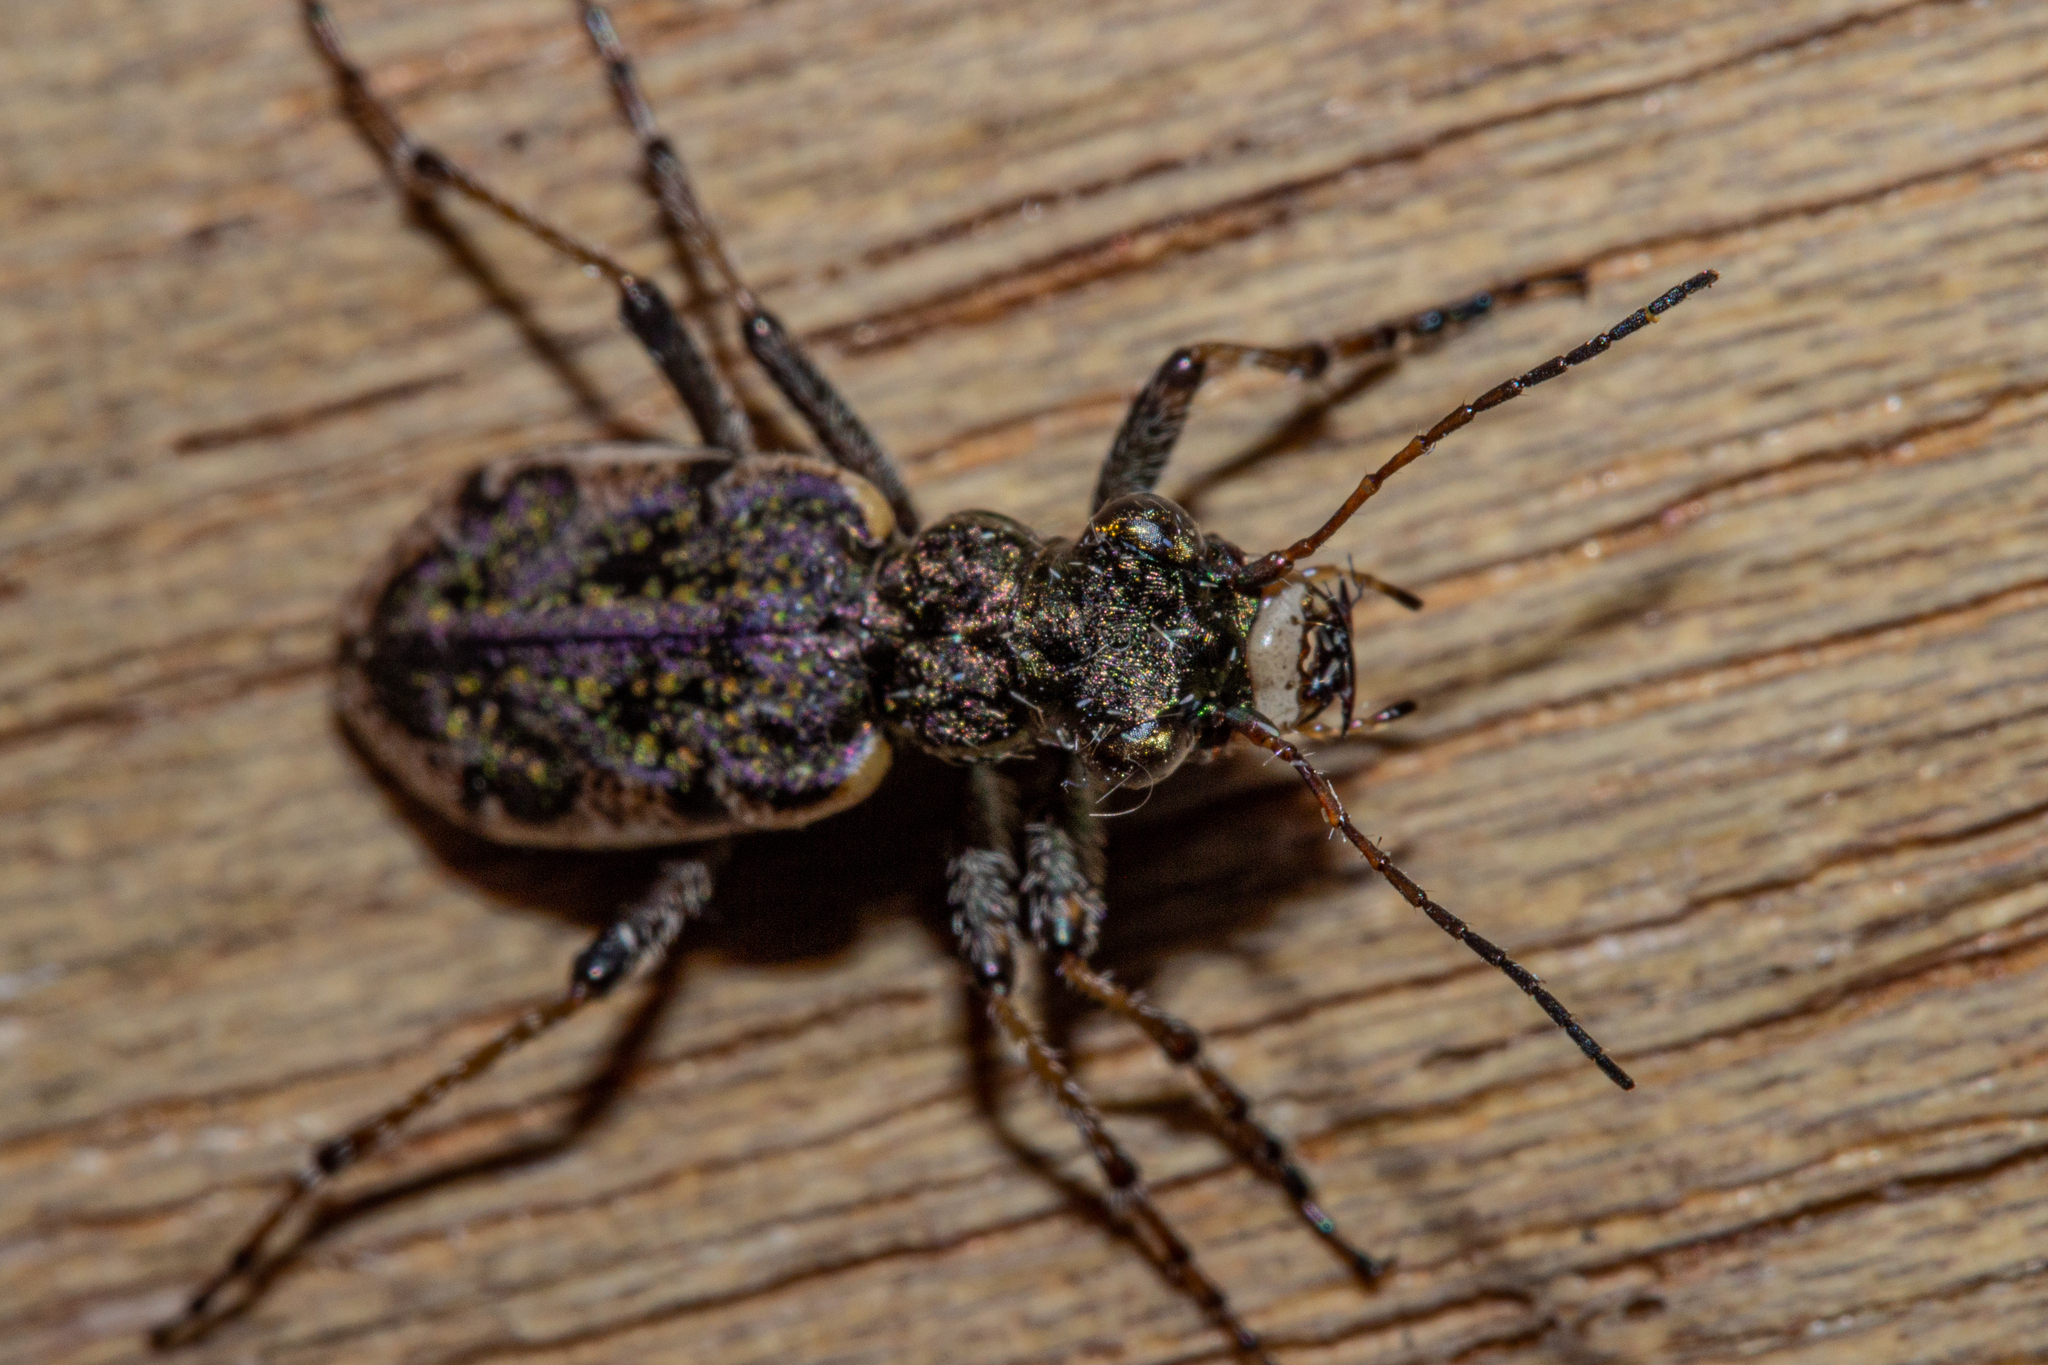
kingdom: Animalia
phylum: Arthropoda
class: Insecta
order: Coleoptera
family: Carabidae
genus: Neocicindela
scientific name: Neocicindela parryi
